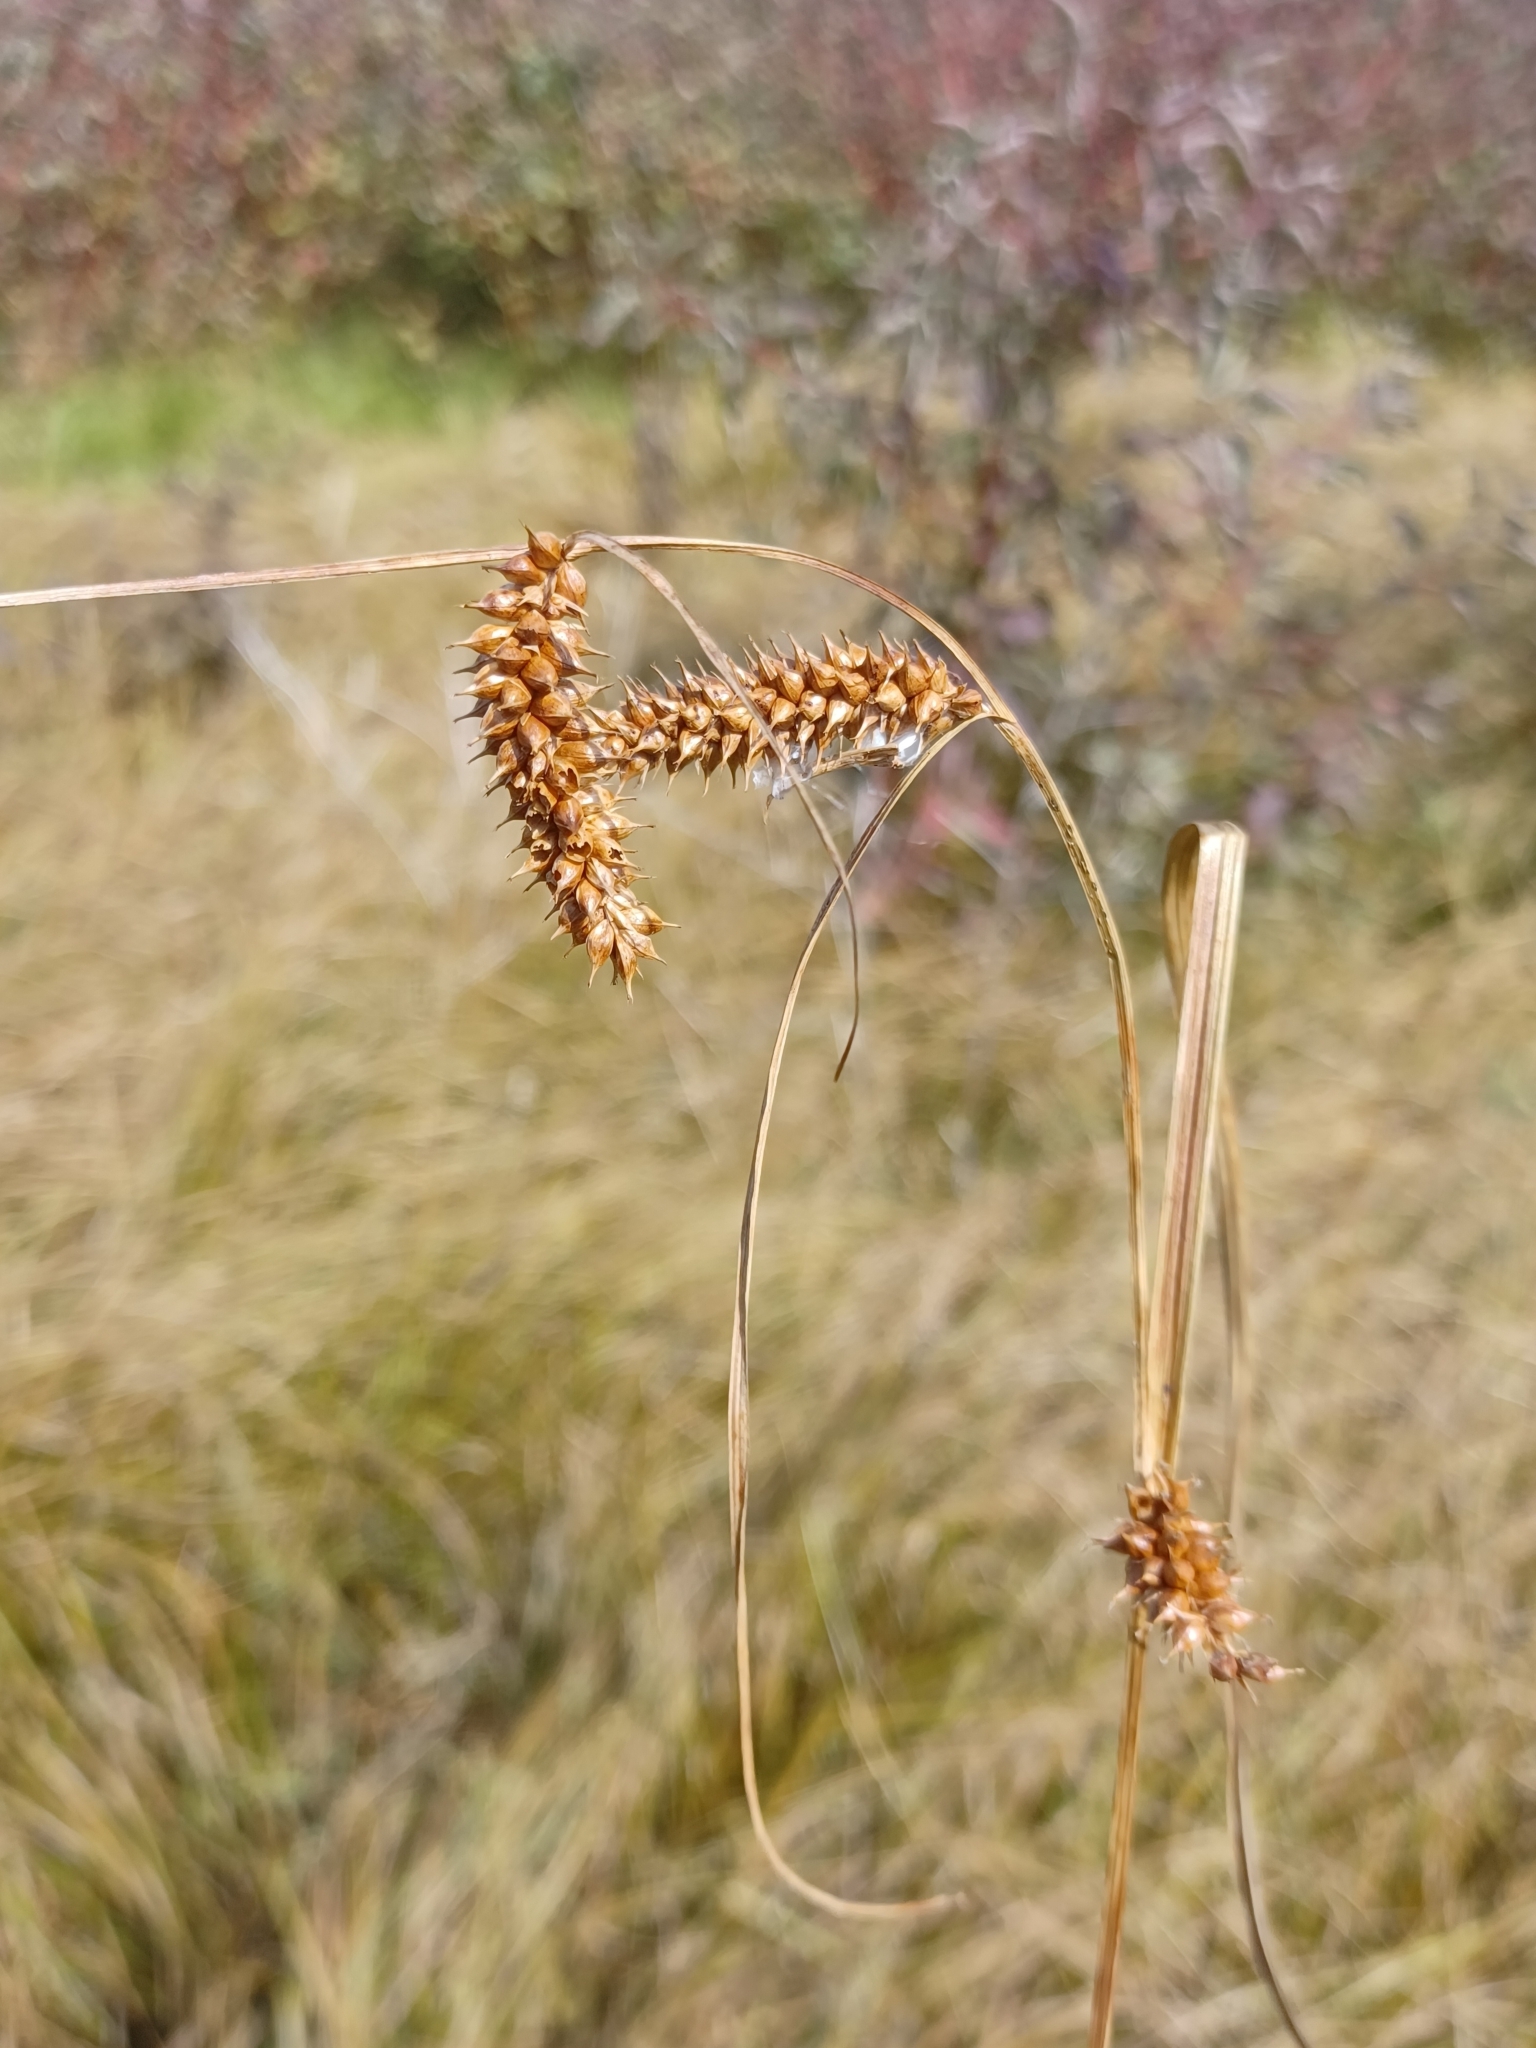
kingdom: Plantae
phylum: Tracheophyta
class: Liliopsida
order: Poales
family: Cyperaceae
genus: Carex
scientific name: Carex utriculata
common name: Beaked sedge
